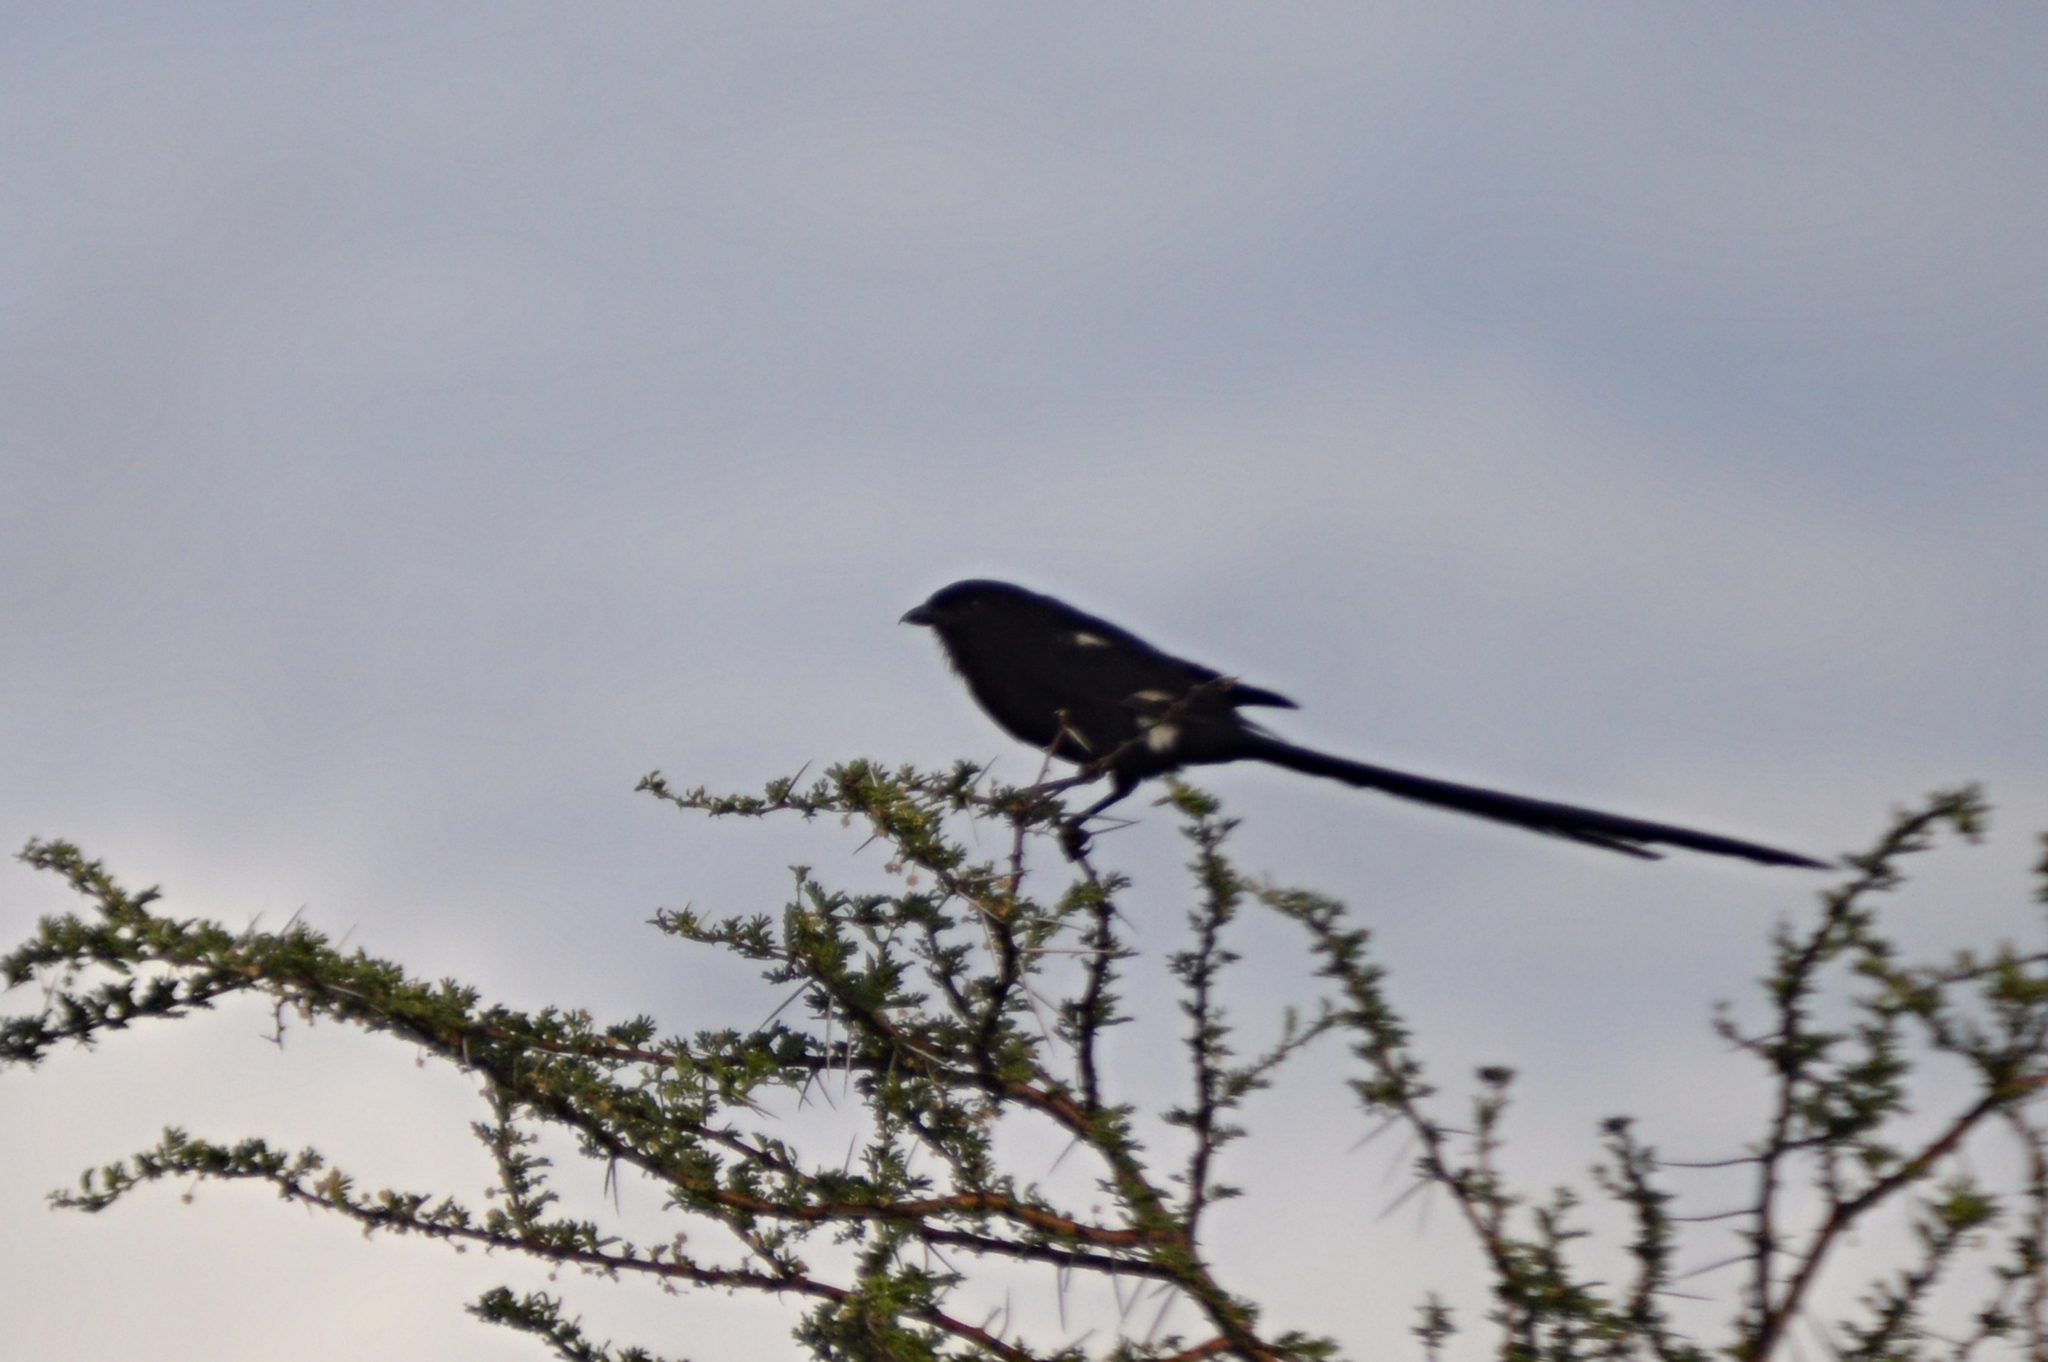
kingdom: Animalia
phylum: Chordata
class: Aves
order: Passeriformes
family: Laniidae
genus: Urolestes
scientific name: Urolestes melanoleucus
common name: Magpie shrike
